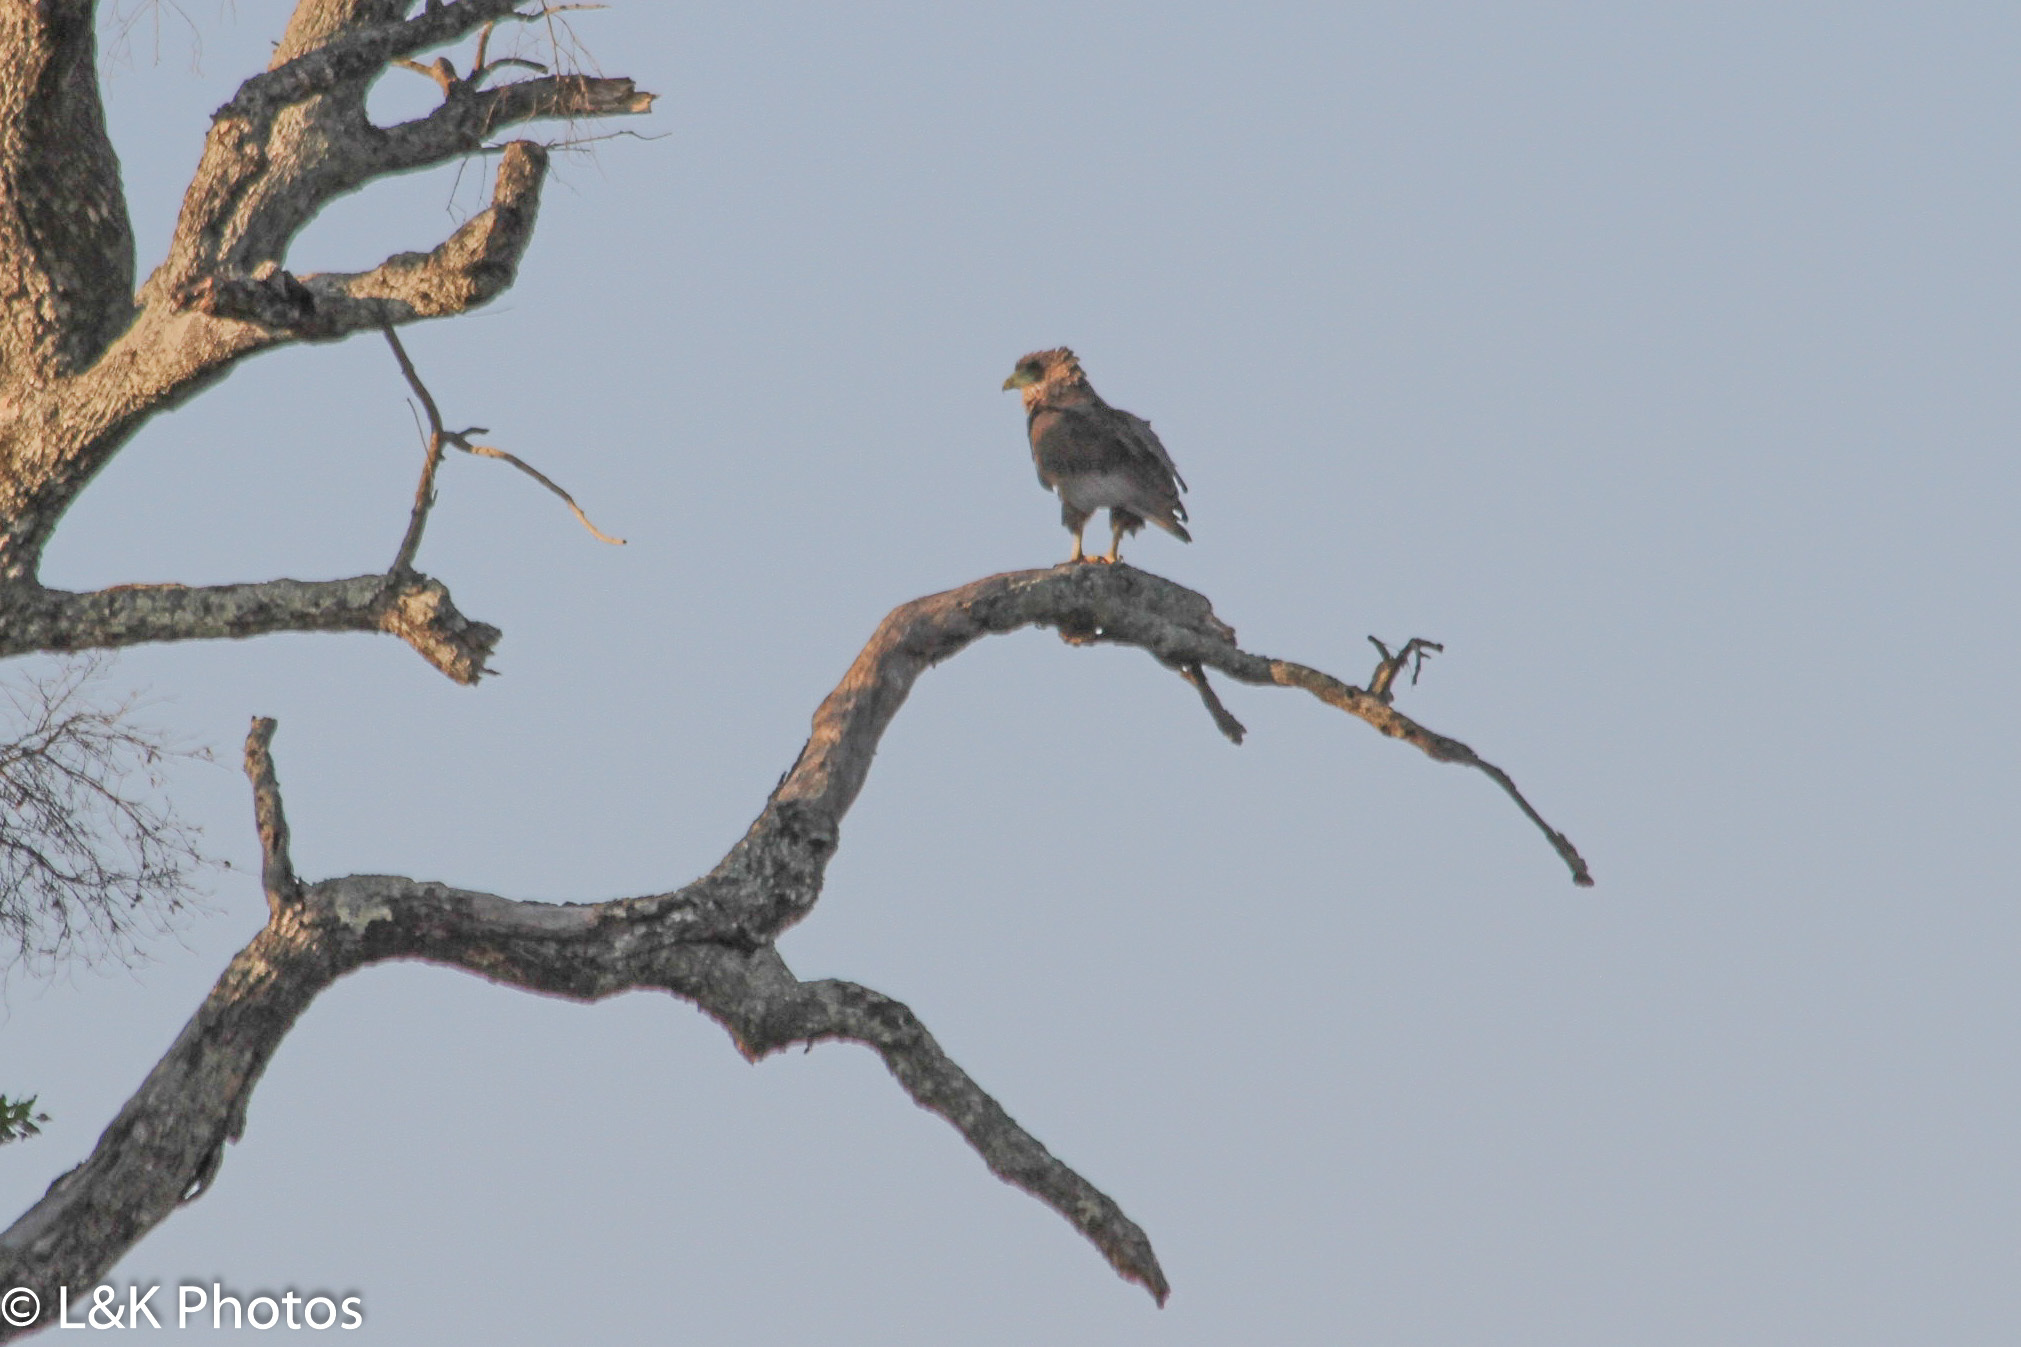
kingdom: Animalia
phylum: Chordata
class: Aves
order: Accipitriformes
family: Accipitridae
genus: Terathopius
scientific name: Terathopius ecaudatus
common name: Bateleur
